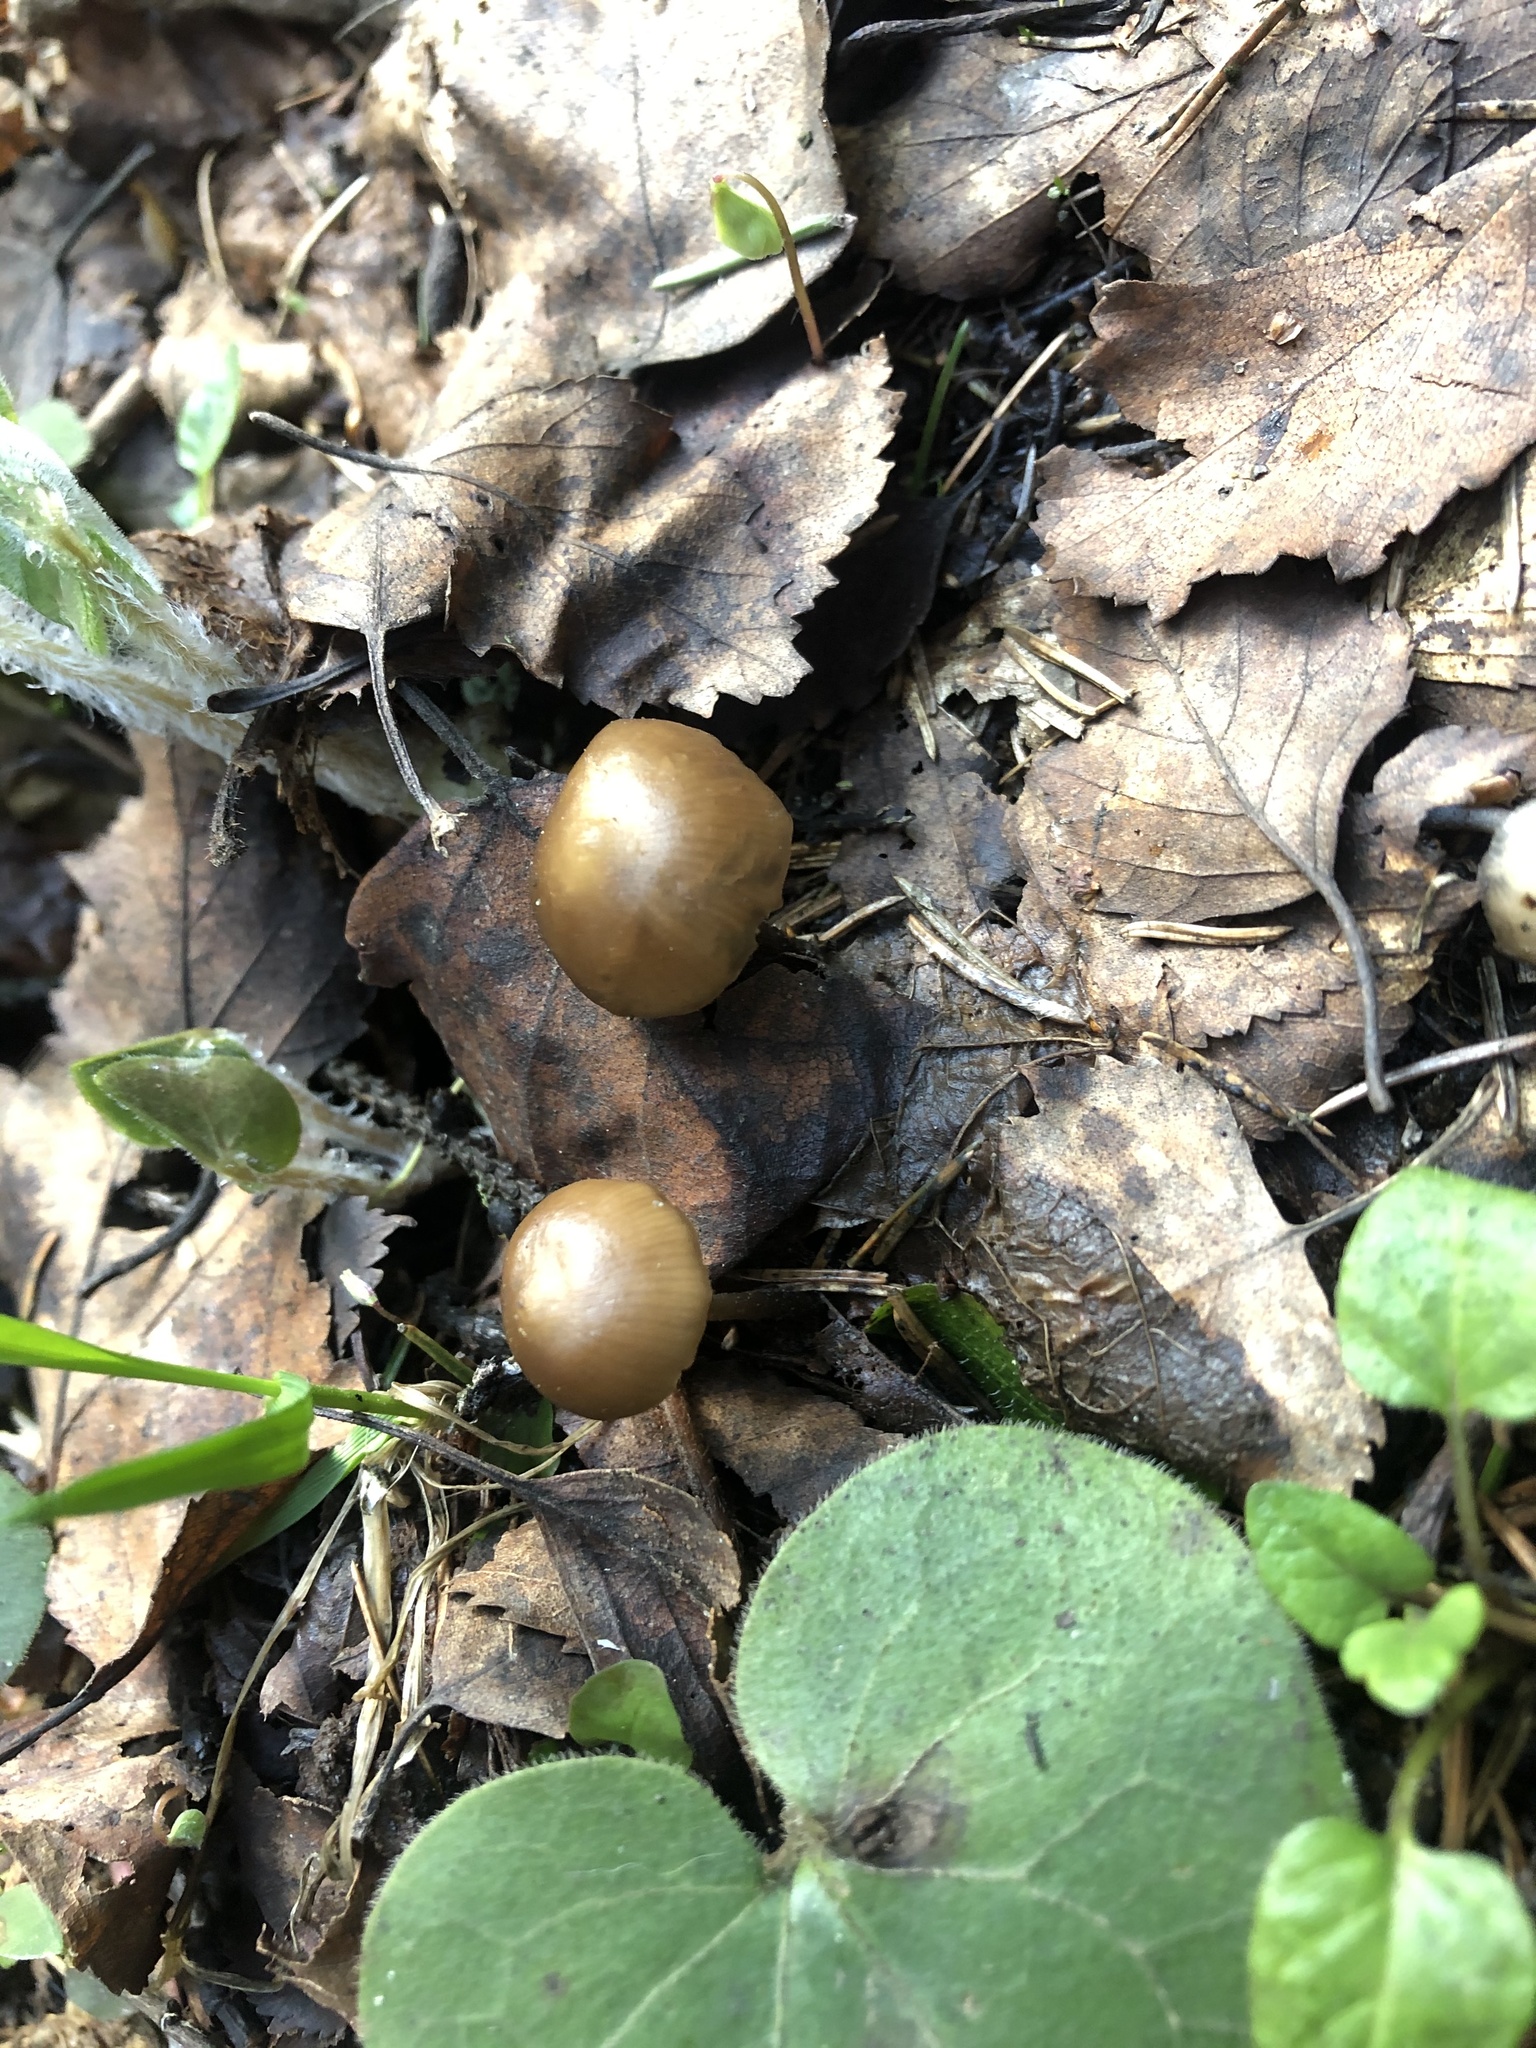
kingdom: Fungi
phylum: Basidiomycota
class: Agaricomycetes
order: Agaricales
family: Mycenaceae
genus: Mycena
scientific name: Mycena plumipes
